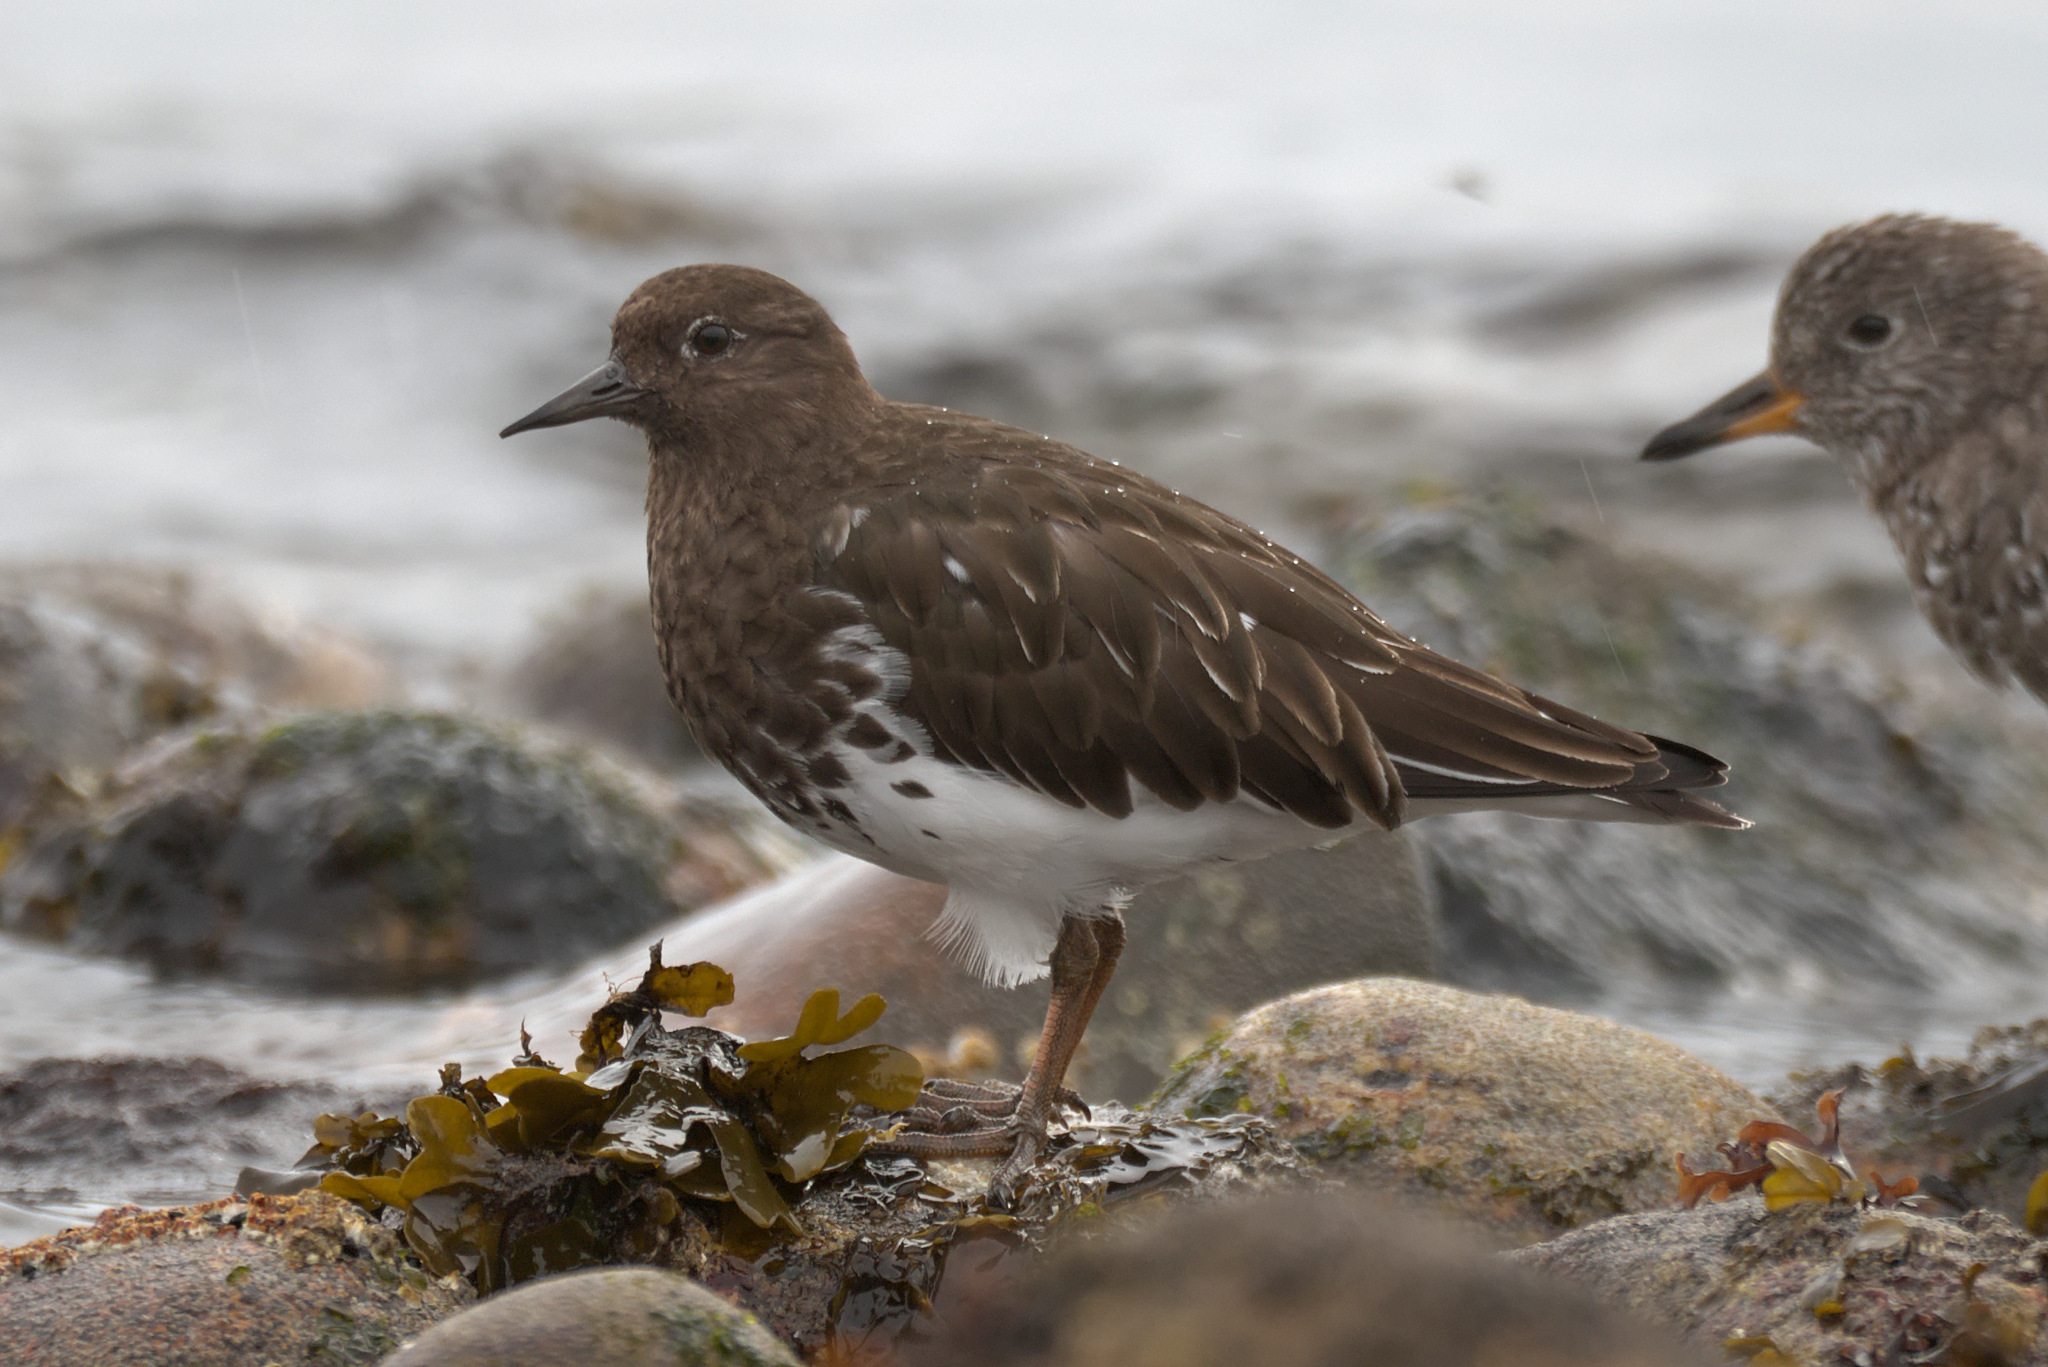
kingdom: Animalia
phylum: Chordata
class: Aves
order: Charadriiformes
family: Scolopacidae
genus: Arenaria
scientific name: Arenaria melanocephala
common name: Black turnstone
